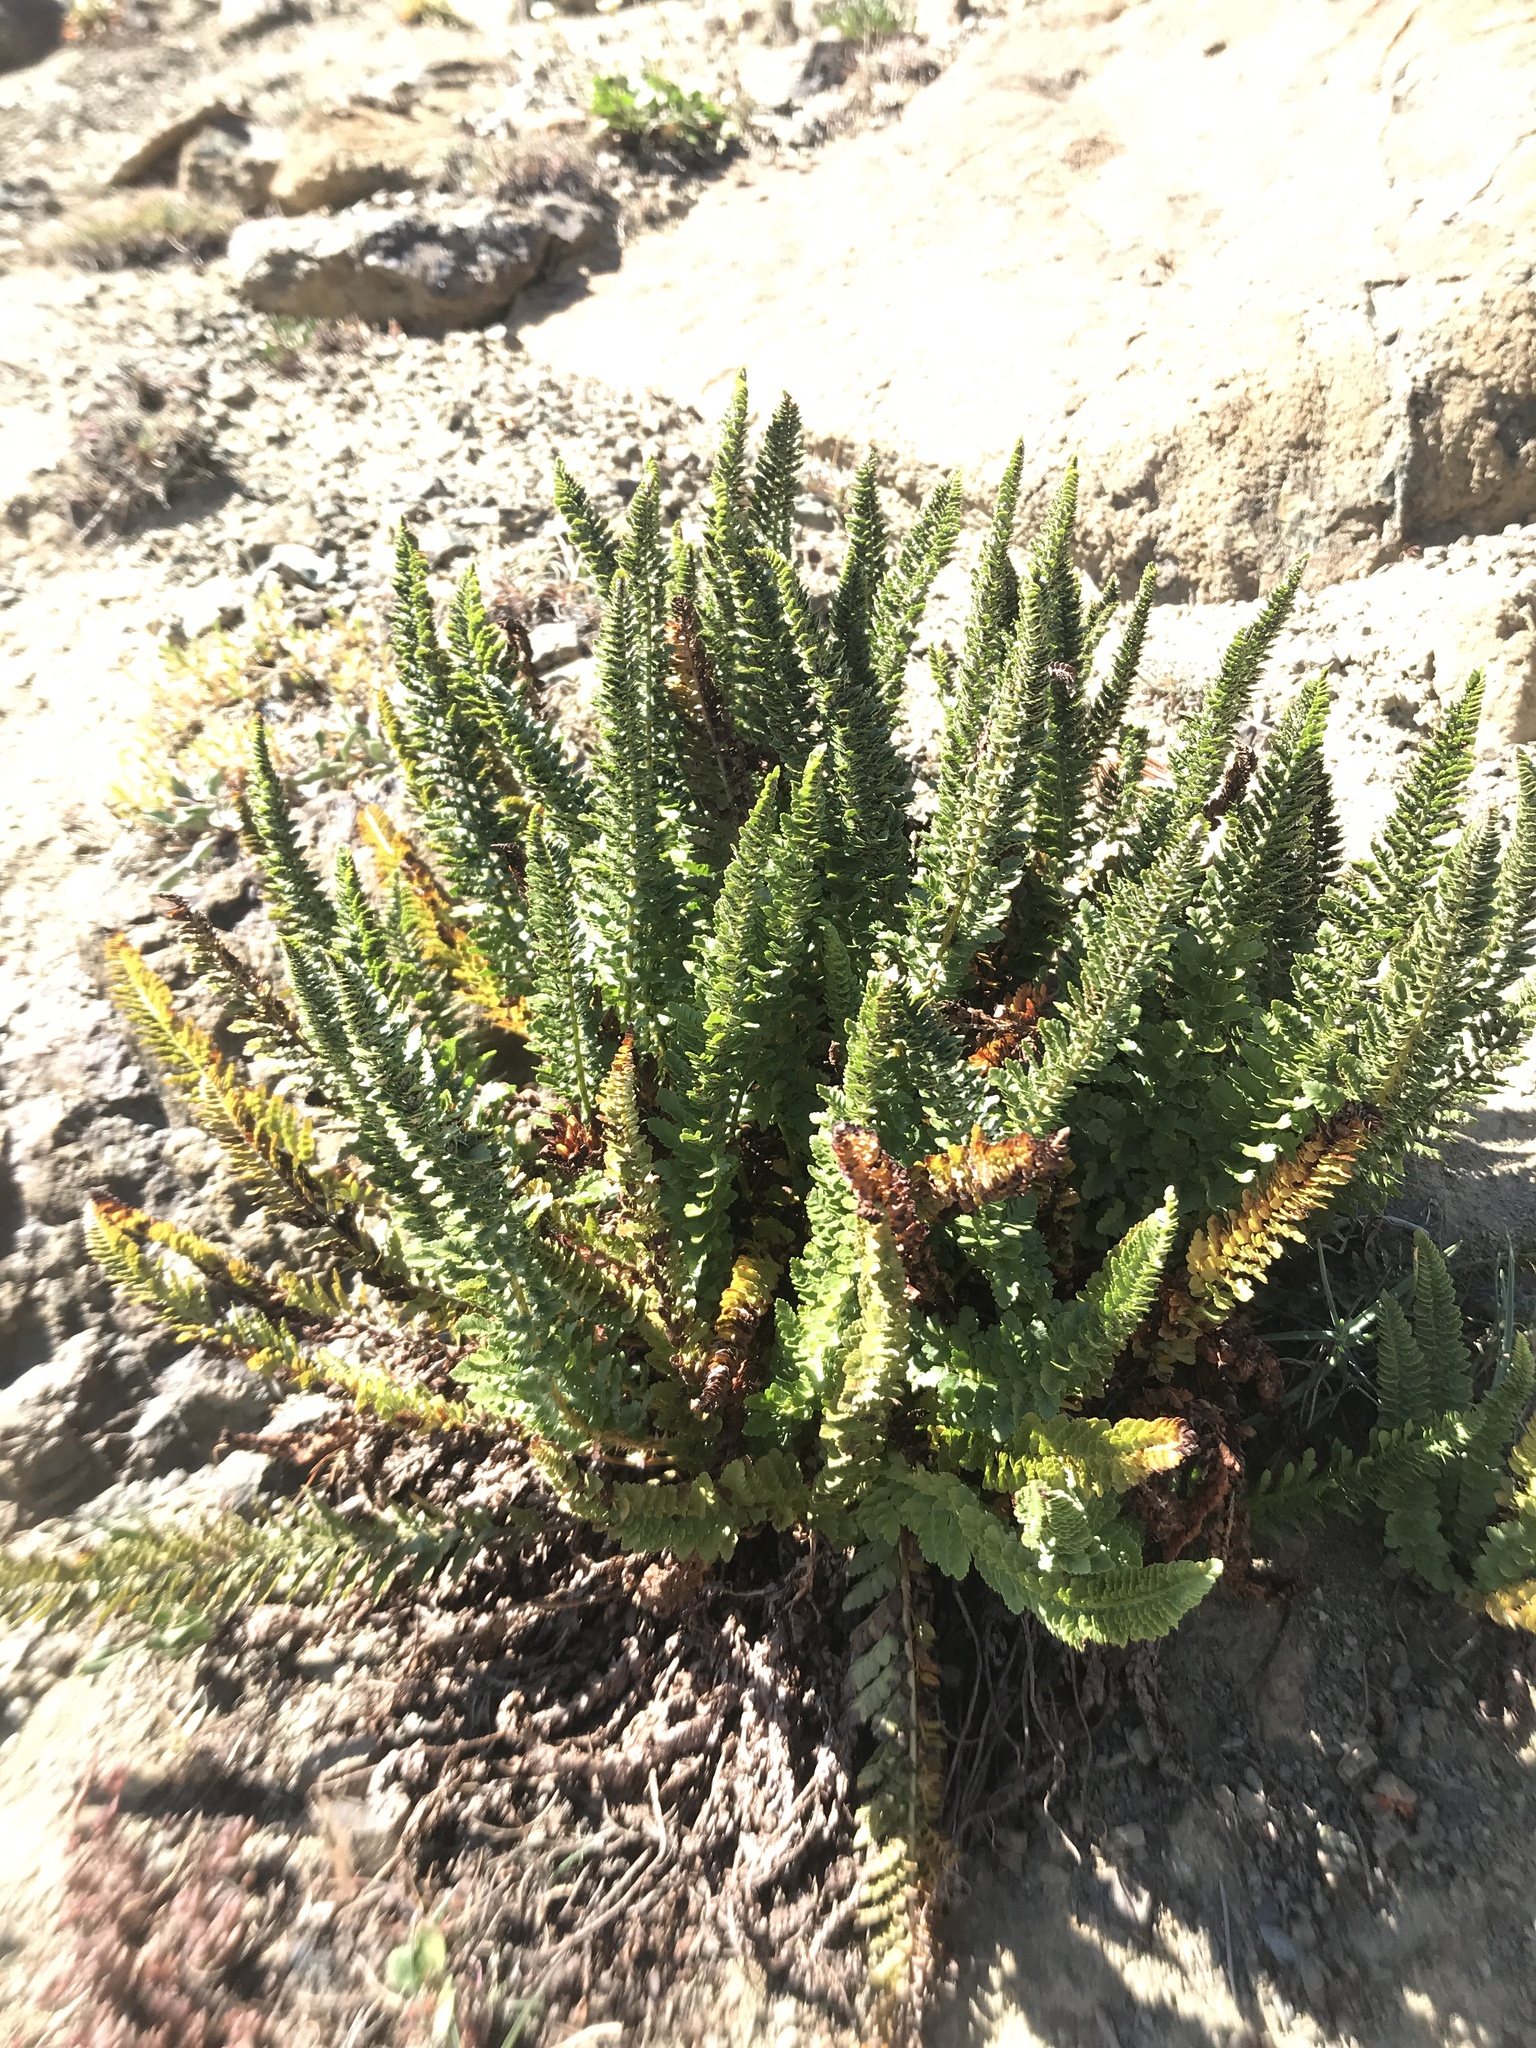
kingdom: Plantae
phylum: Tracheophyta
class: Polypodiopsida
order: Polypodiales
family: Dryopteridaceae
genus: Polystichum
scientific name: Polystichum lemmonii
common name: Lemmon's holly fern
